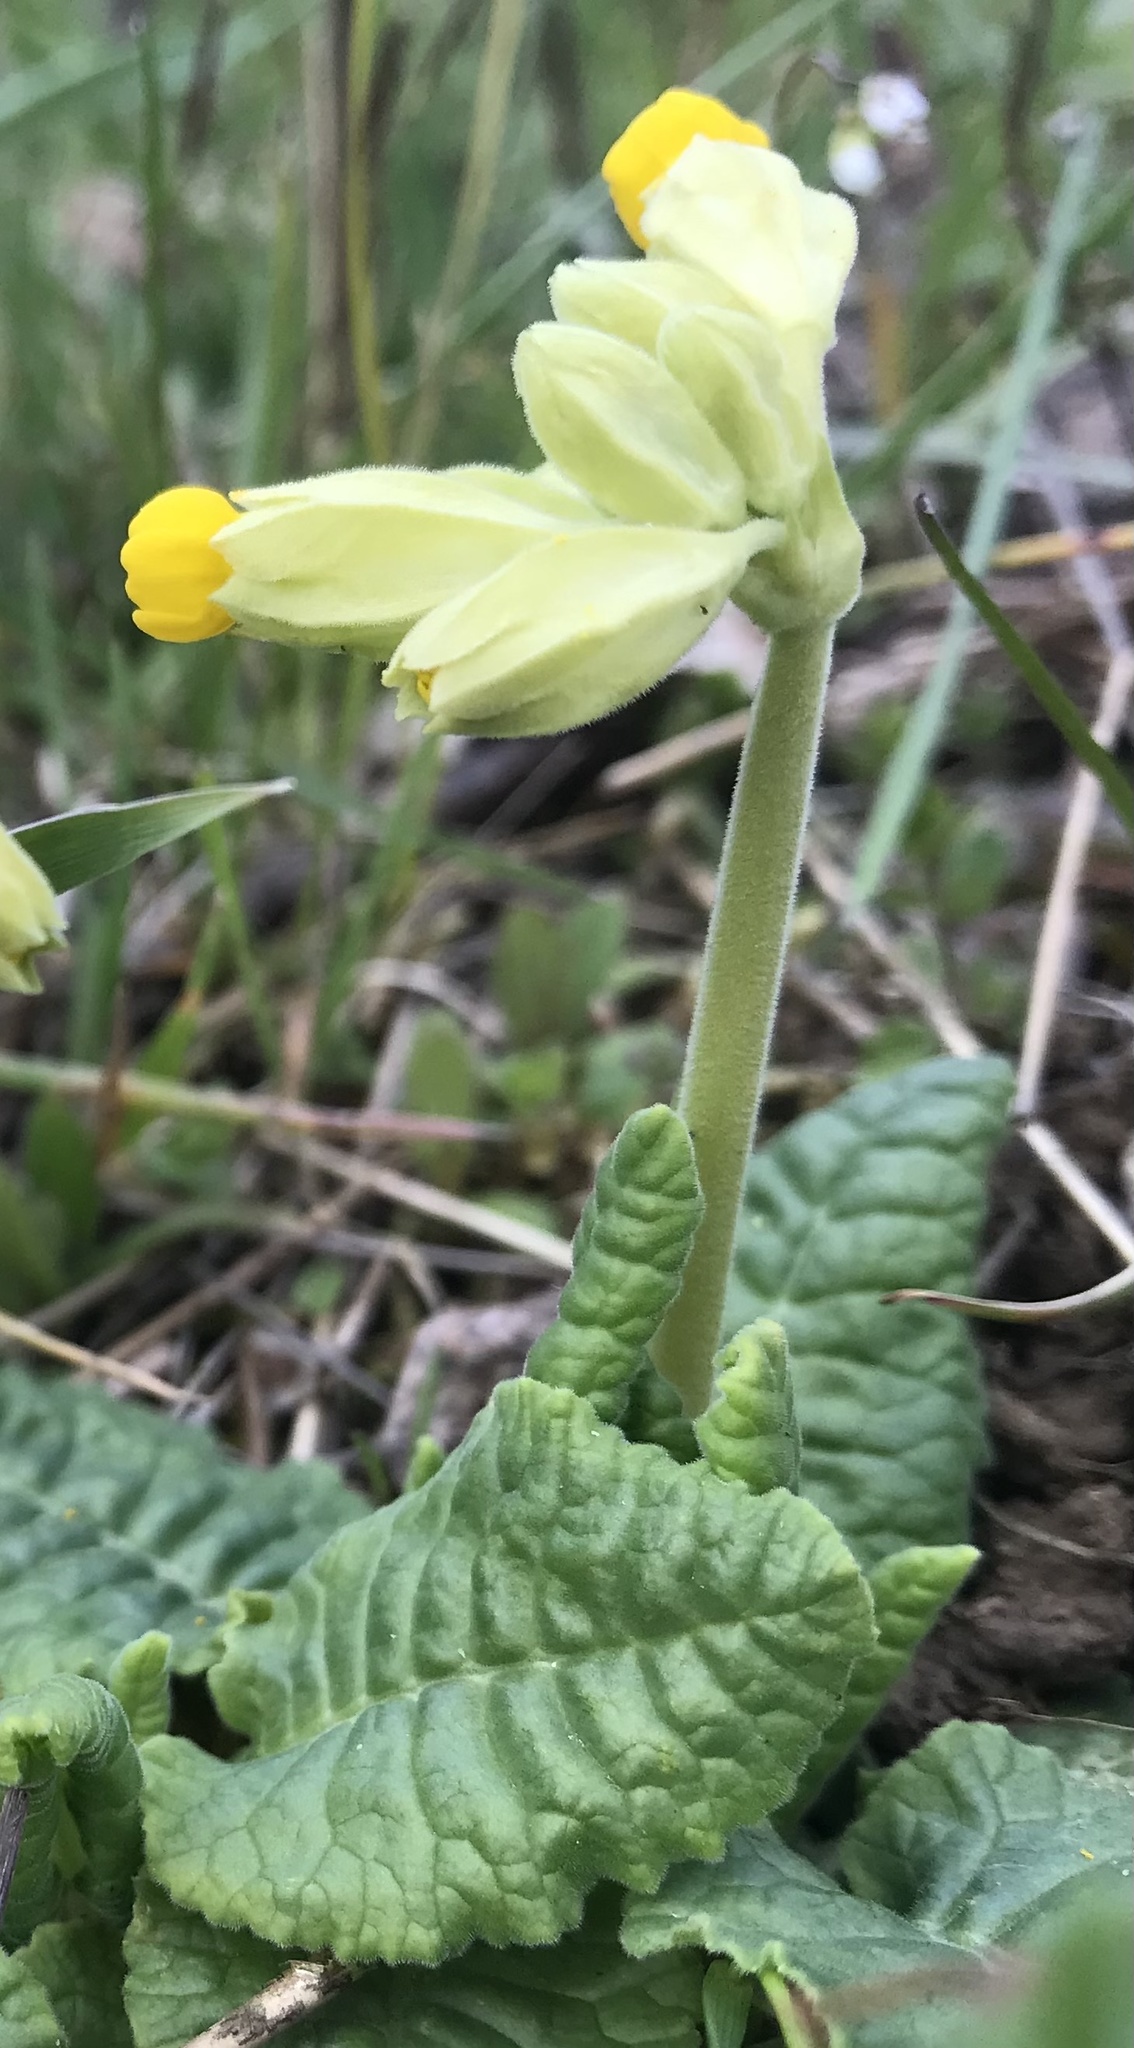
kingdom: Plantae
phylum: Tracheophyta
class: Magnoliopsida
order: Ericales
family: Primulaceae
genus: Primula
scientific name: Primula veris
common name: Cowslip
